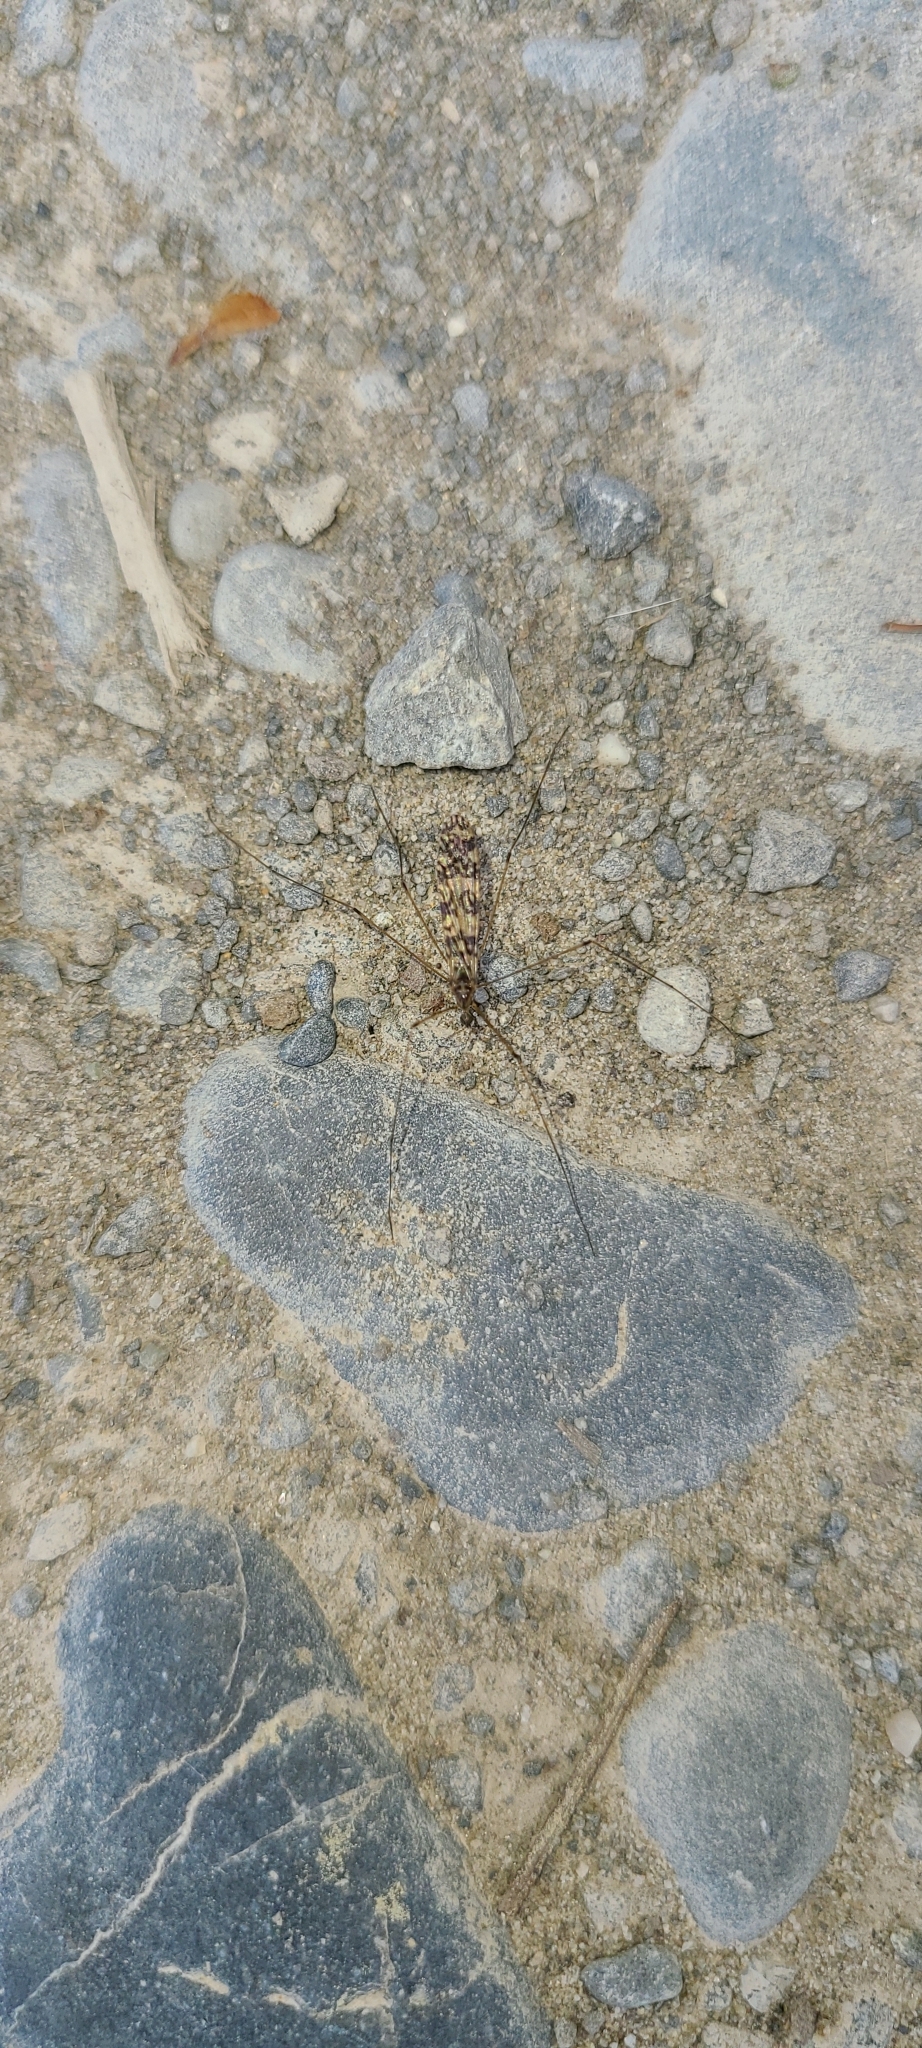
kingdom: Animalia
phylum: Arthropoda
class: Insecta
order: Diptera
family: Limoniidae
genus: Discobola
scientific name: Discobola gibberina
